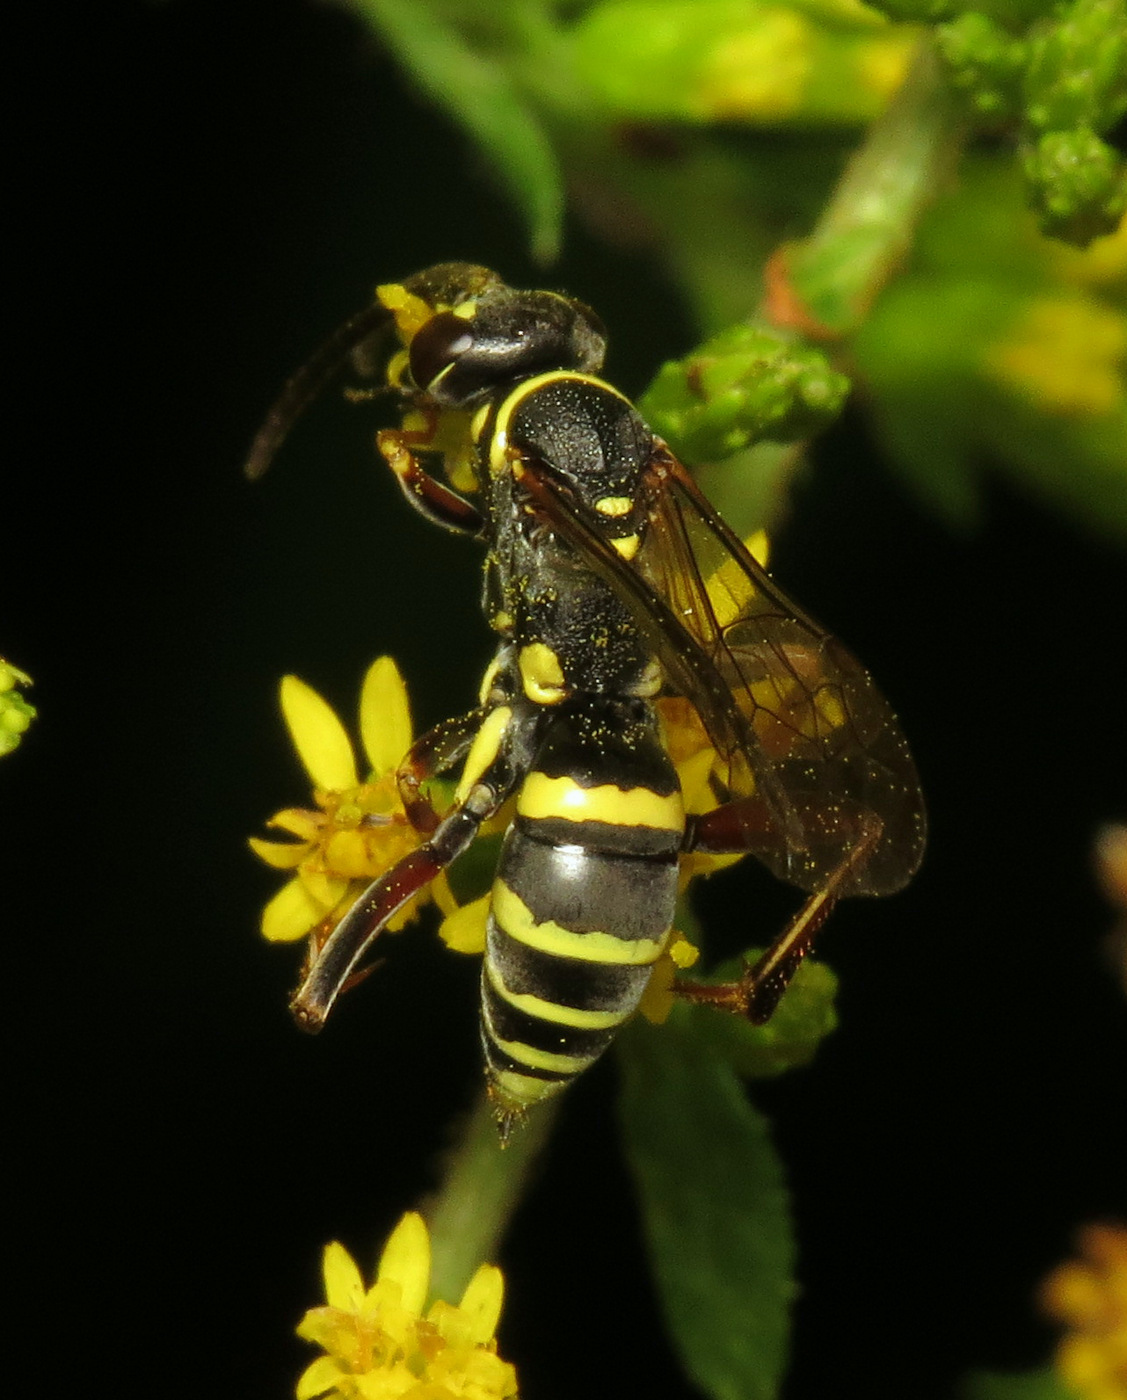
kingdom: Animalia
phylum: Arthropoda
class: Insecta
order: Hymenoptera
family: Pompilidae
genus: Ceropales
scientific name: Ceropales maculata
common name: Spider wasp
